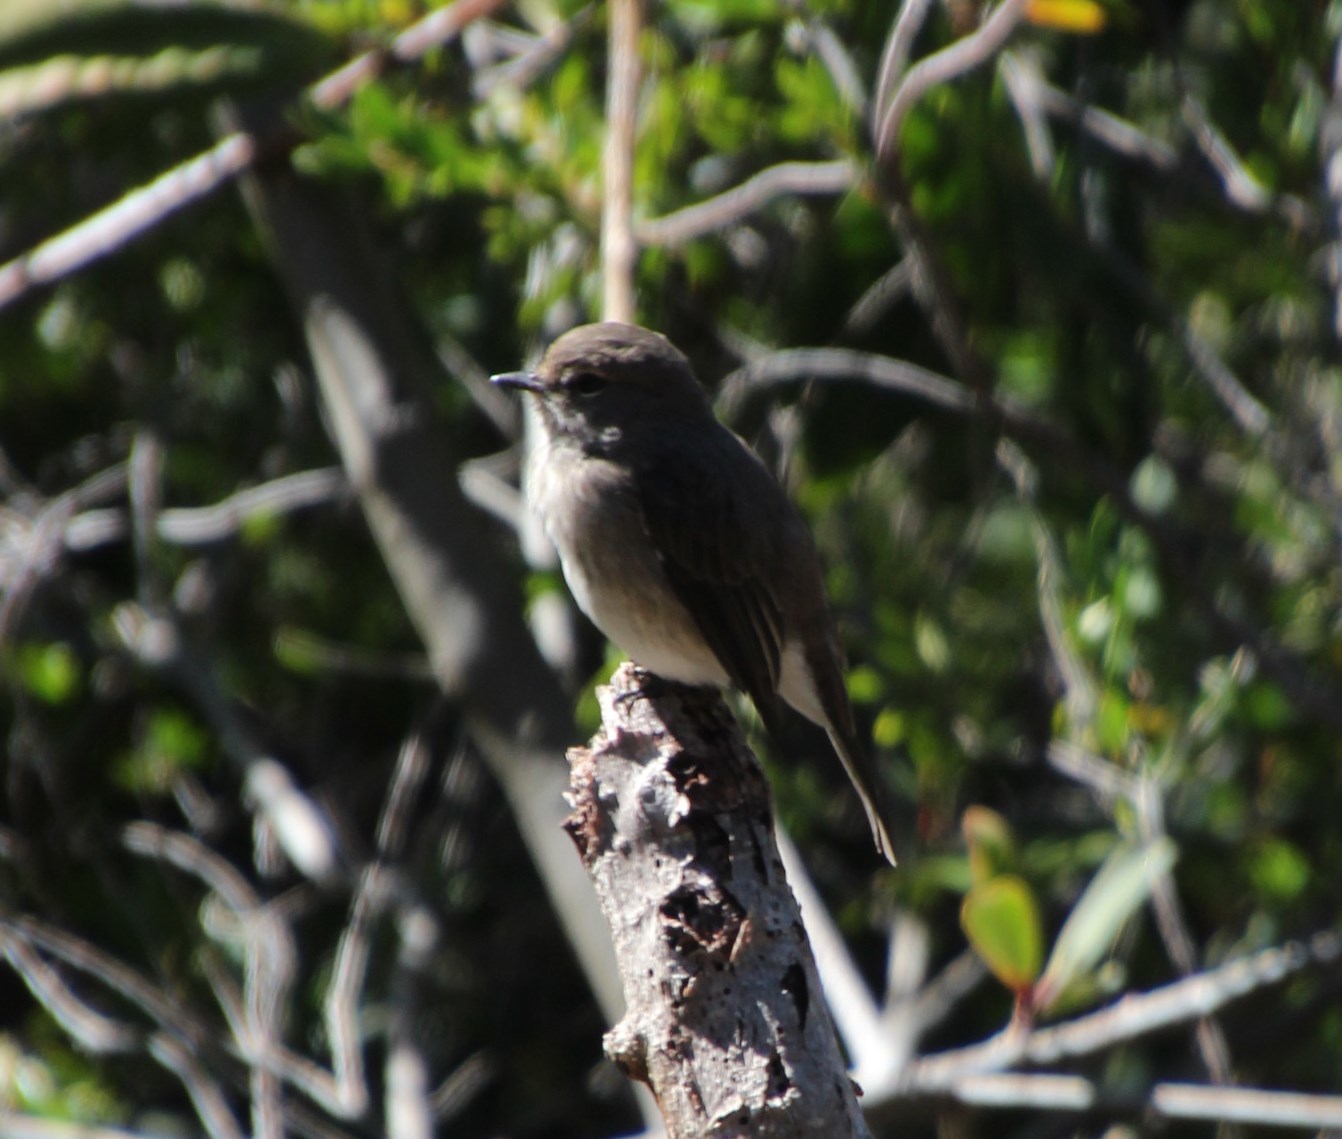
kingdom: Animalia
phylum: Chordata
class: Aves
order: Passeriformes
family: Muscicapidae
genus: Muscicapa
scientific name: Muscicapa adusta
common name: African dusky flycatcher
